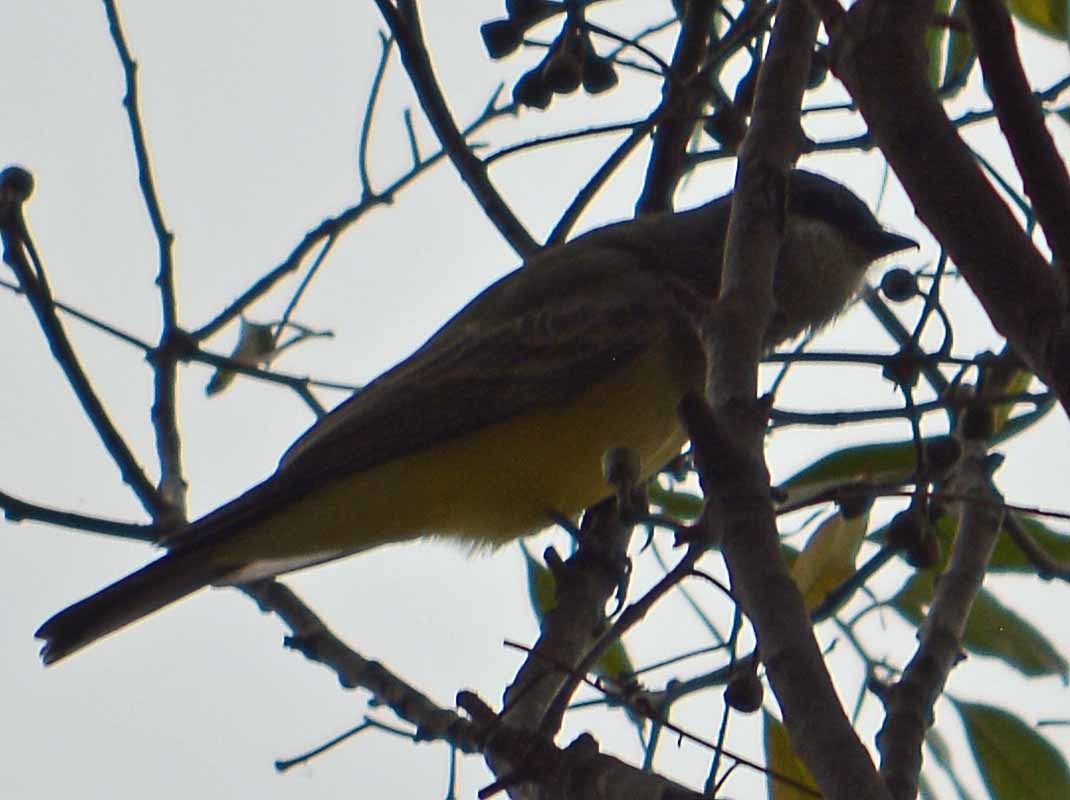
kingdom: Animalia
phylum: Chordata
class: Aves
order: Passeriformes
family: Tyrannidae
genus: Tyrannus
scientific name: Tyrannus vociferans
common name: Cassin's kingbird
